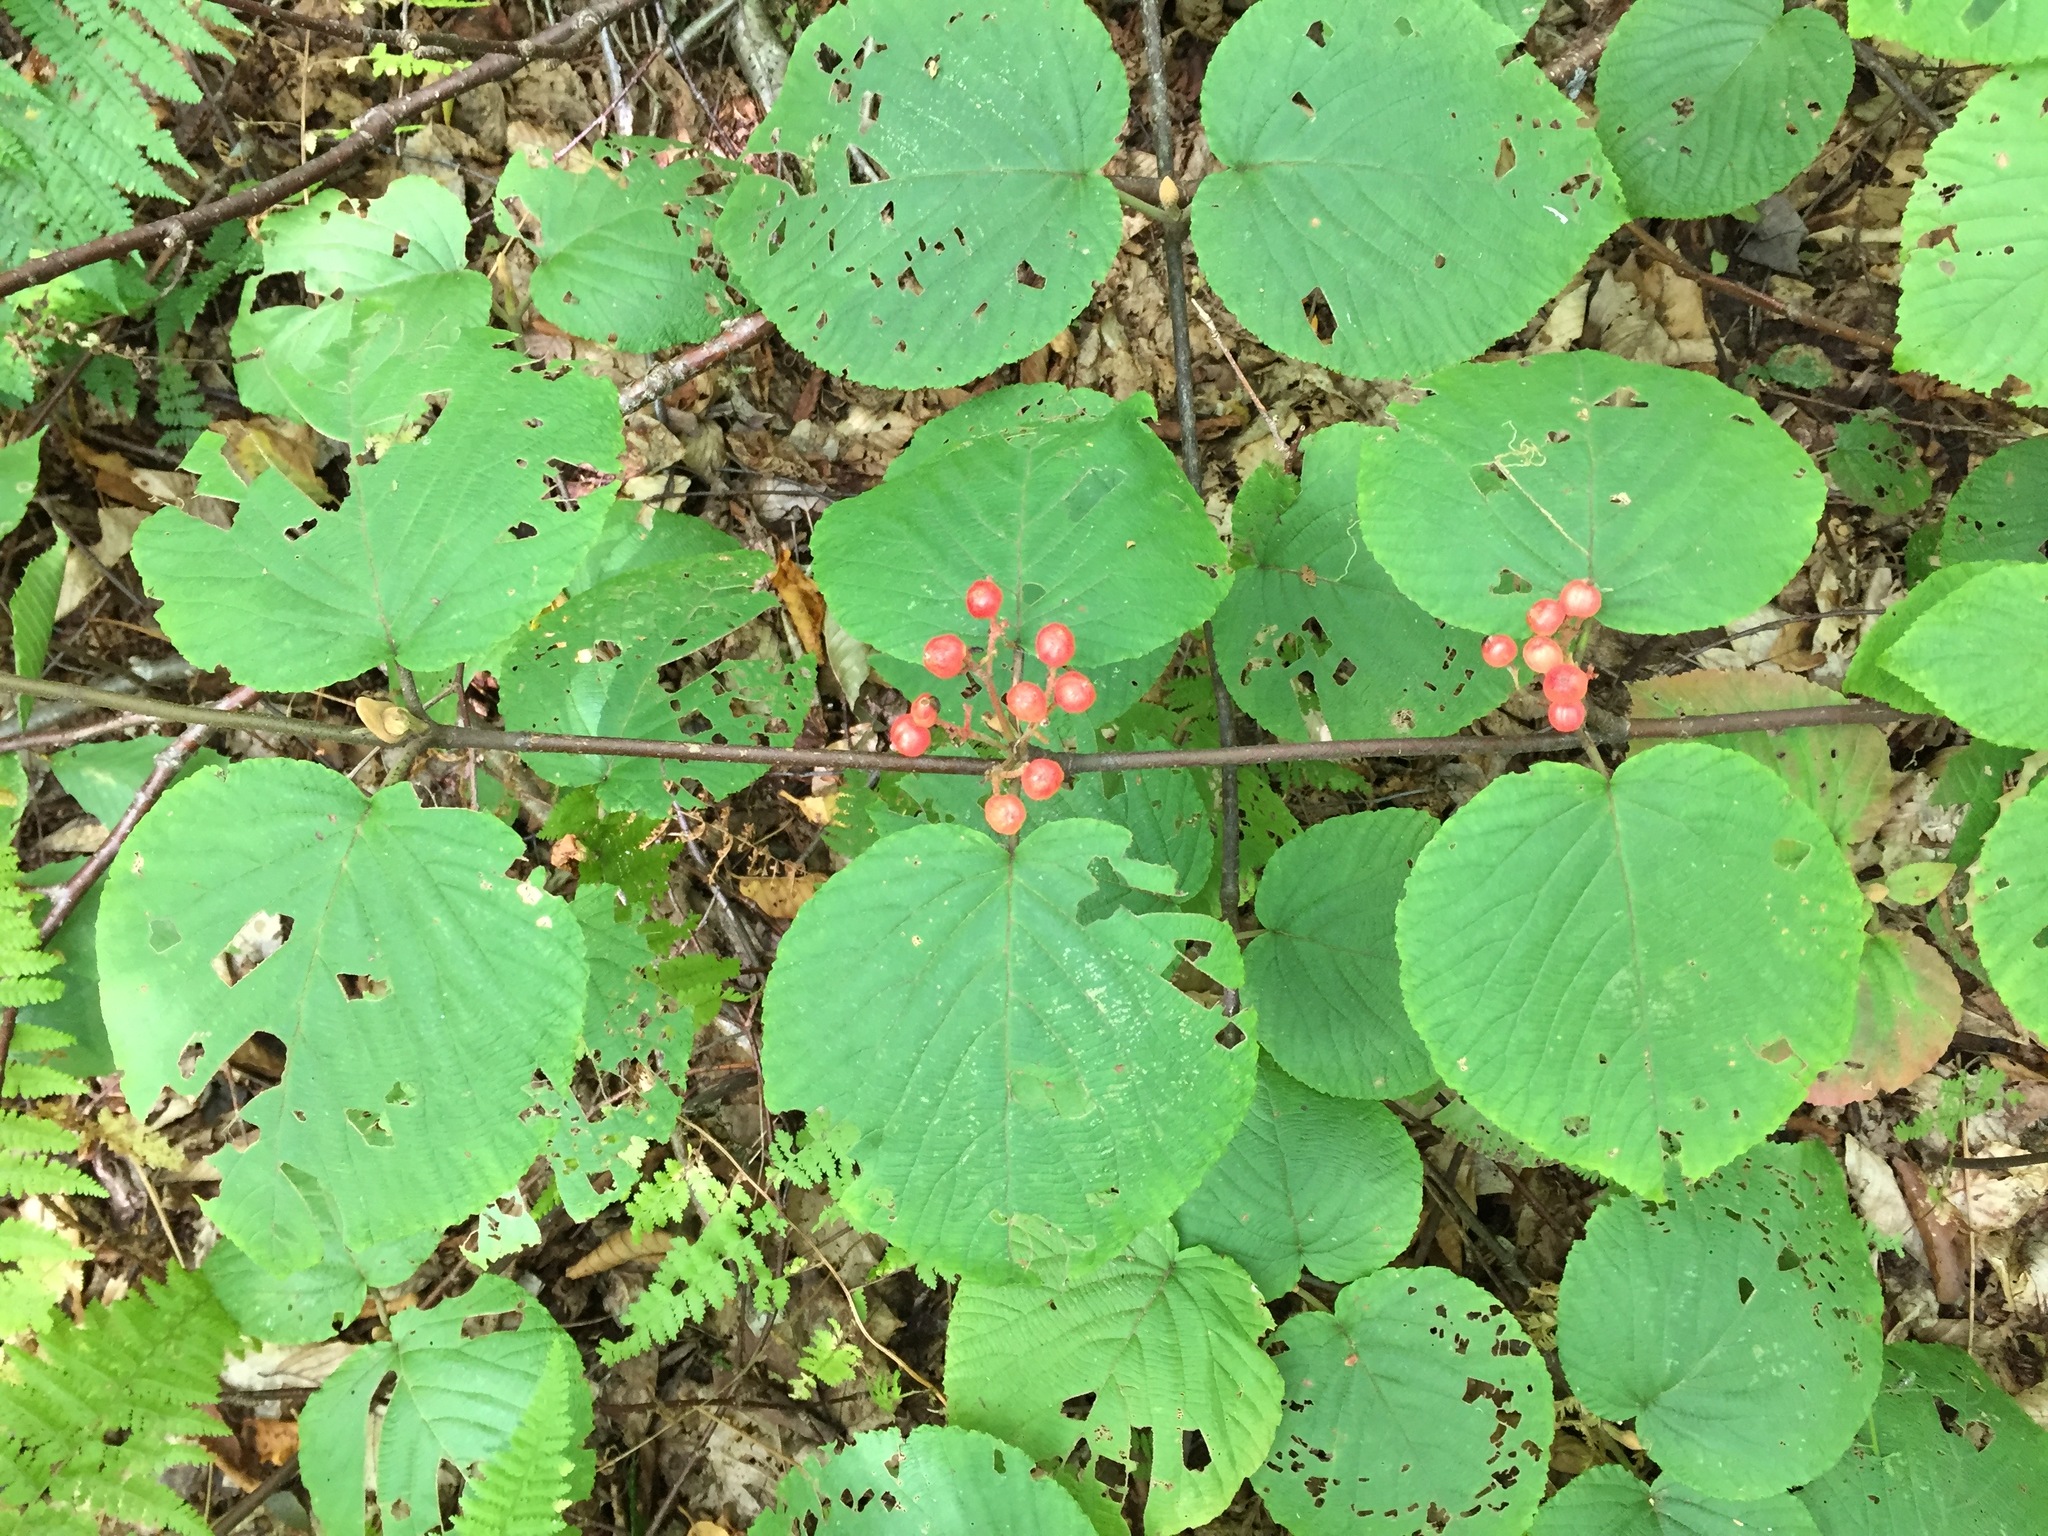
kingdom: Plantae
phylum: Tracheophyta
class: Magnoliopsida
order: Dipsacales
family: Viburnaceae
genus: Viburnum
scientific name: Viburnum lantanoides
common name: Hobblebush
